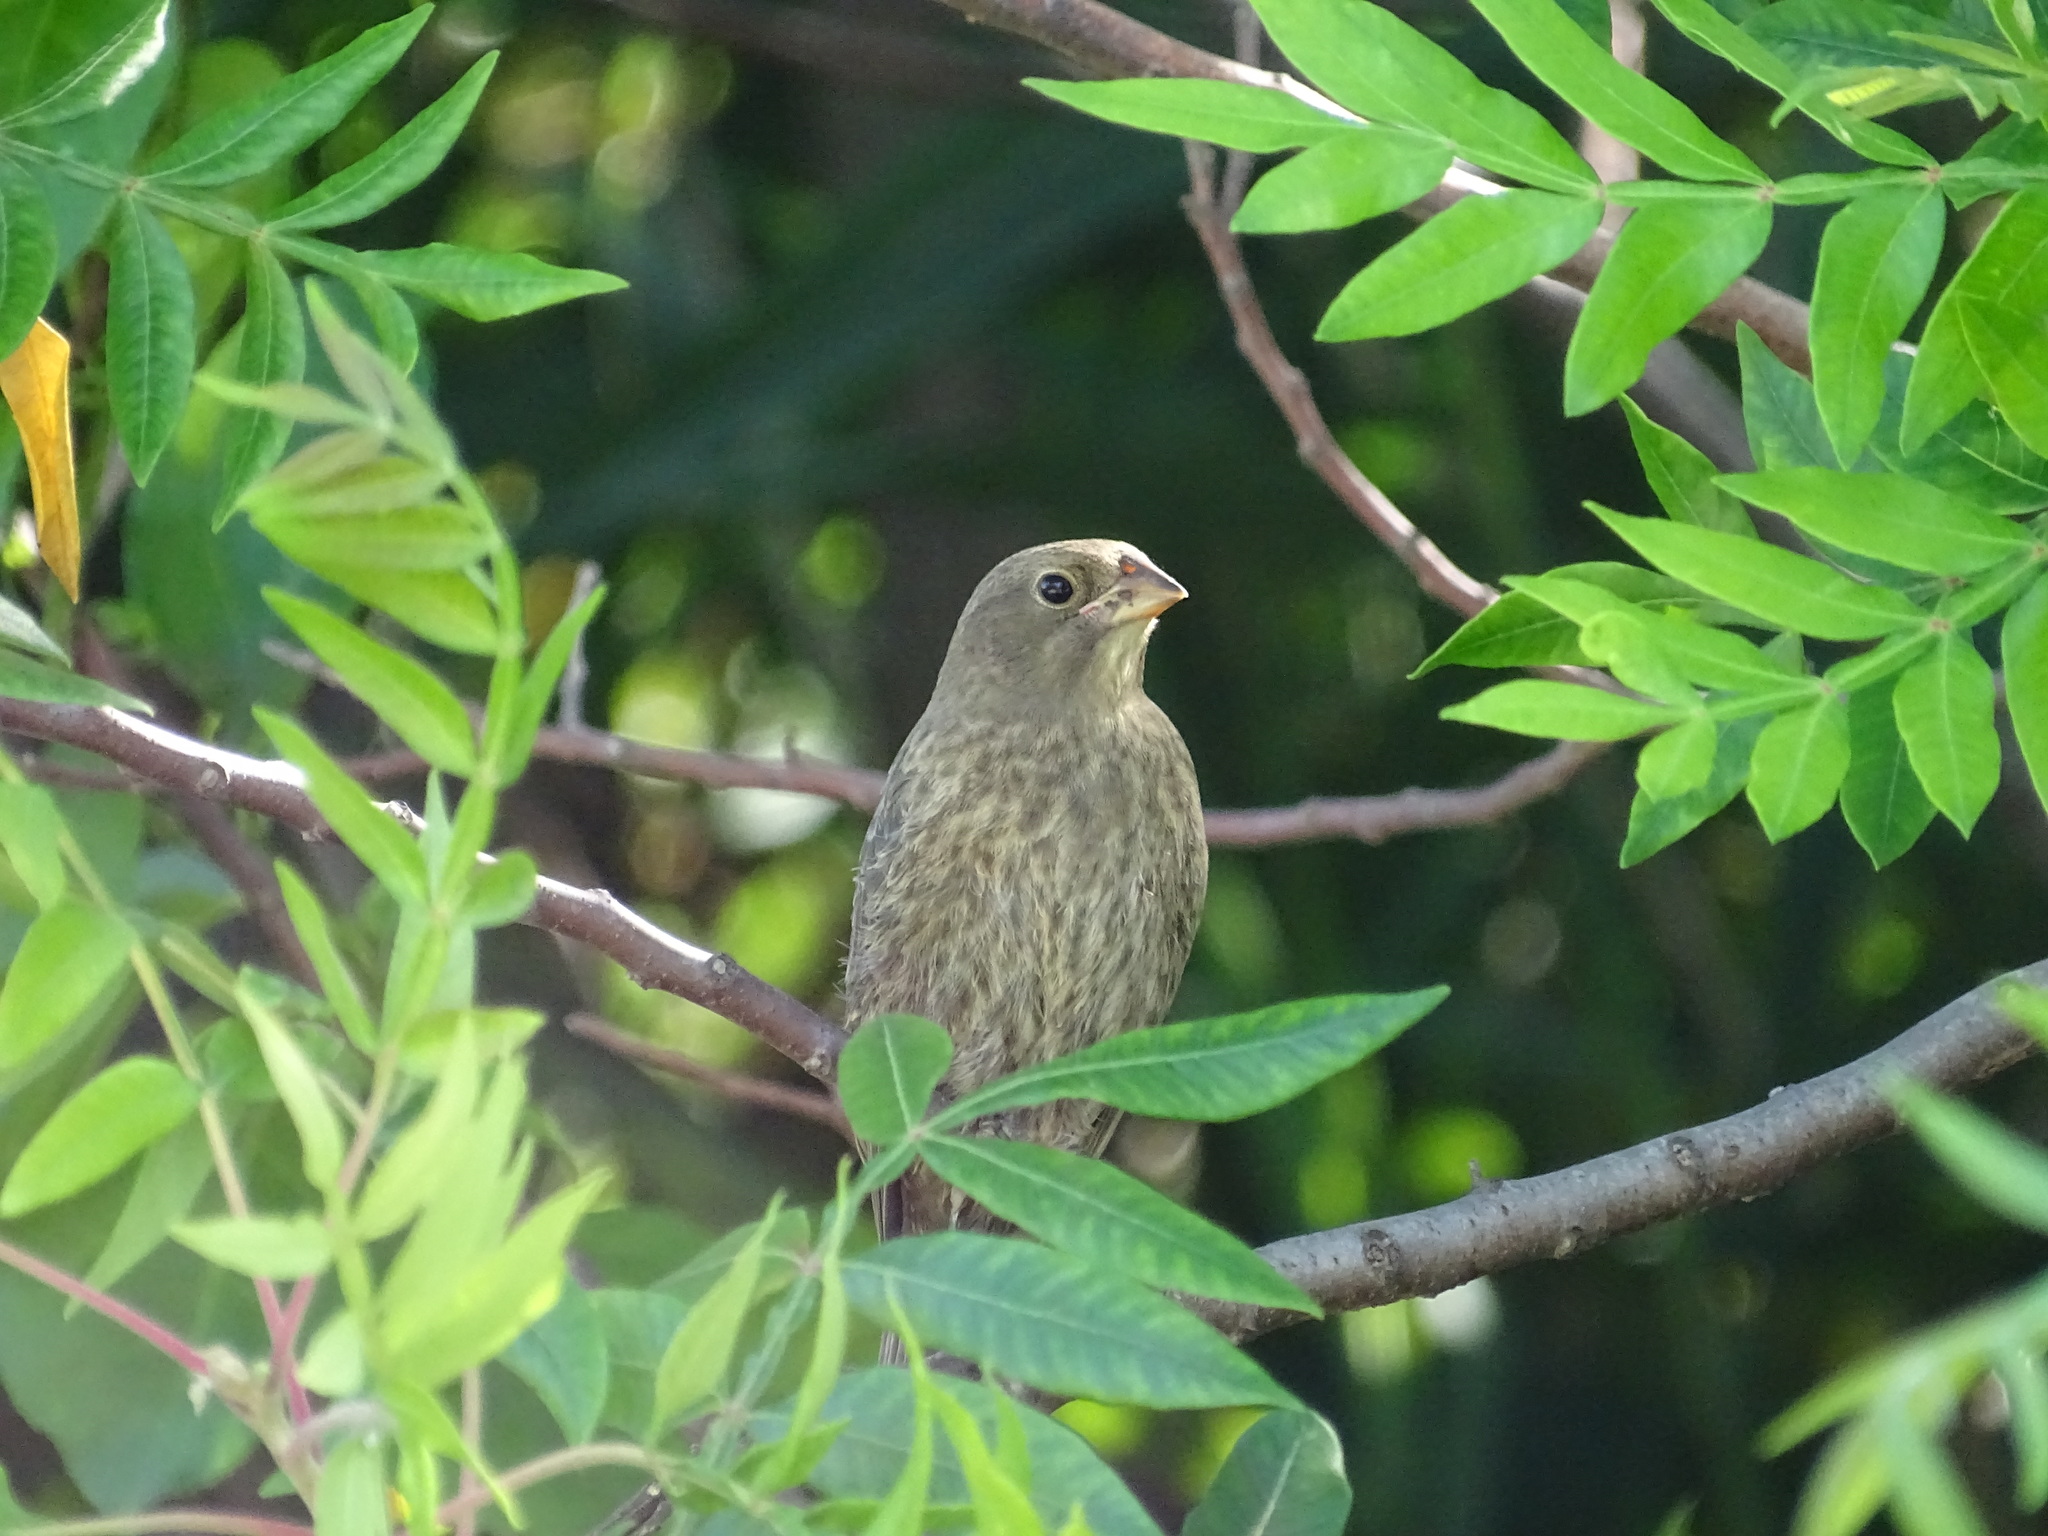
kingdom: Animalia
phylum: Chordata
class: Aves
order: Passeriformes
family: Icteridae
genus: Molothrus
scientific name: Molothrus ater
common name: Brown-headed cowbird
